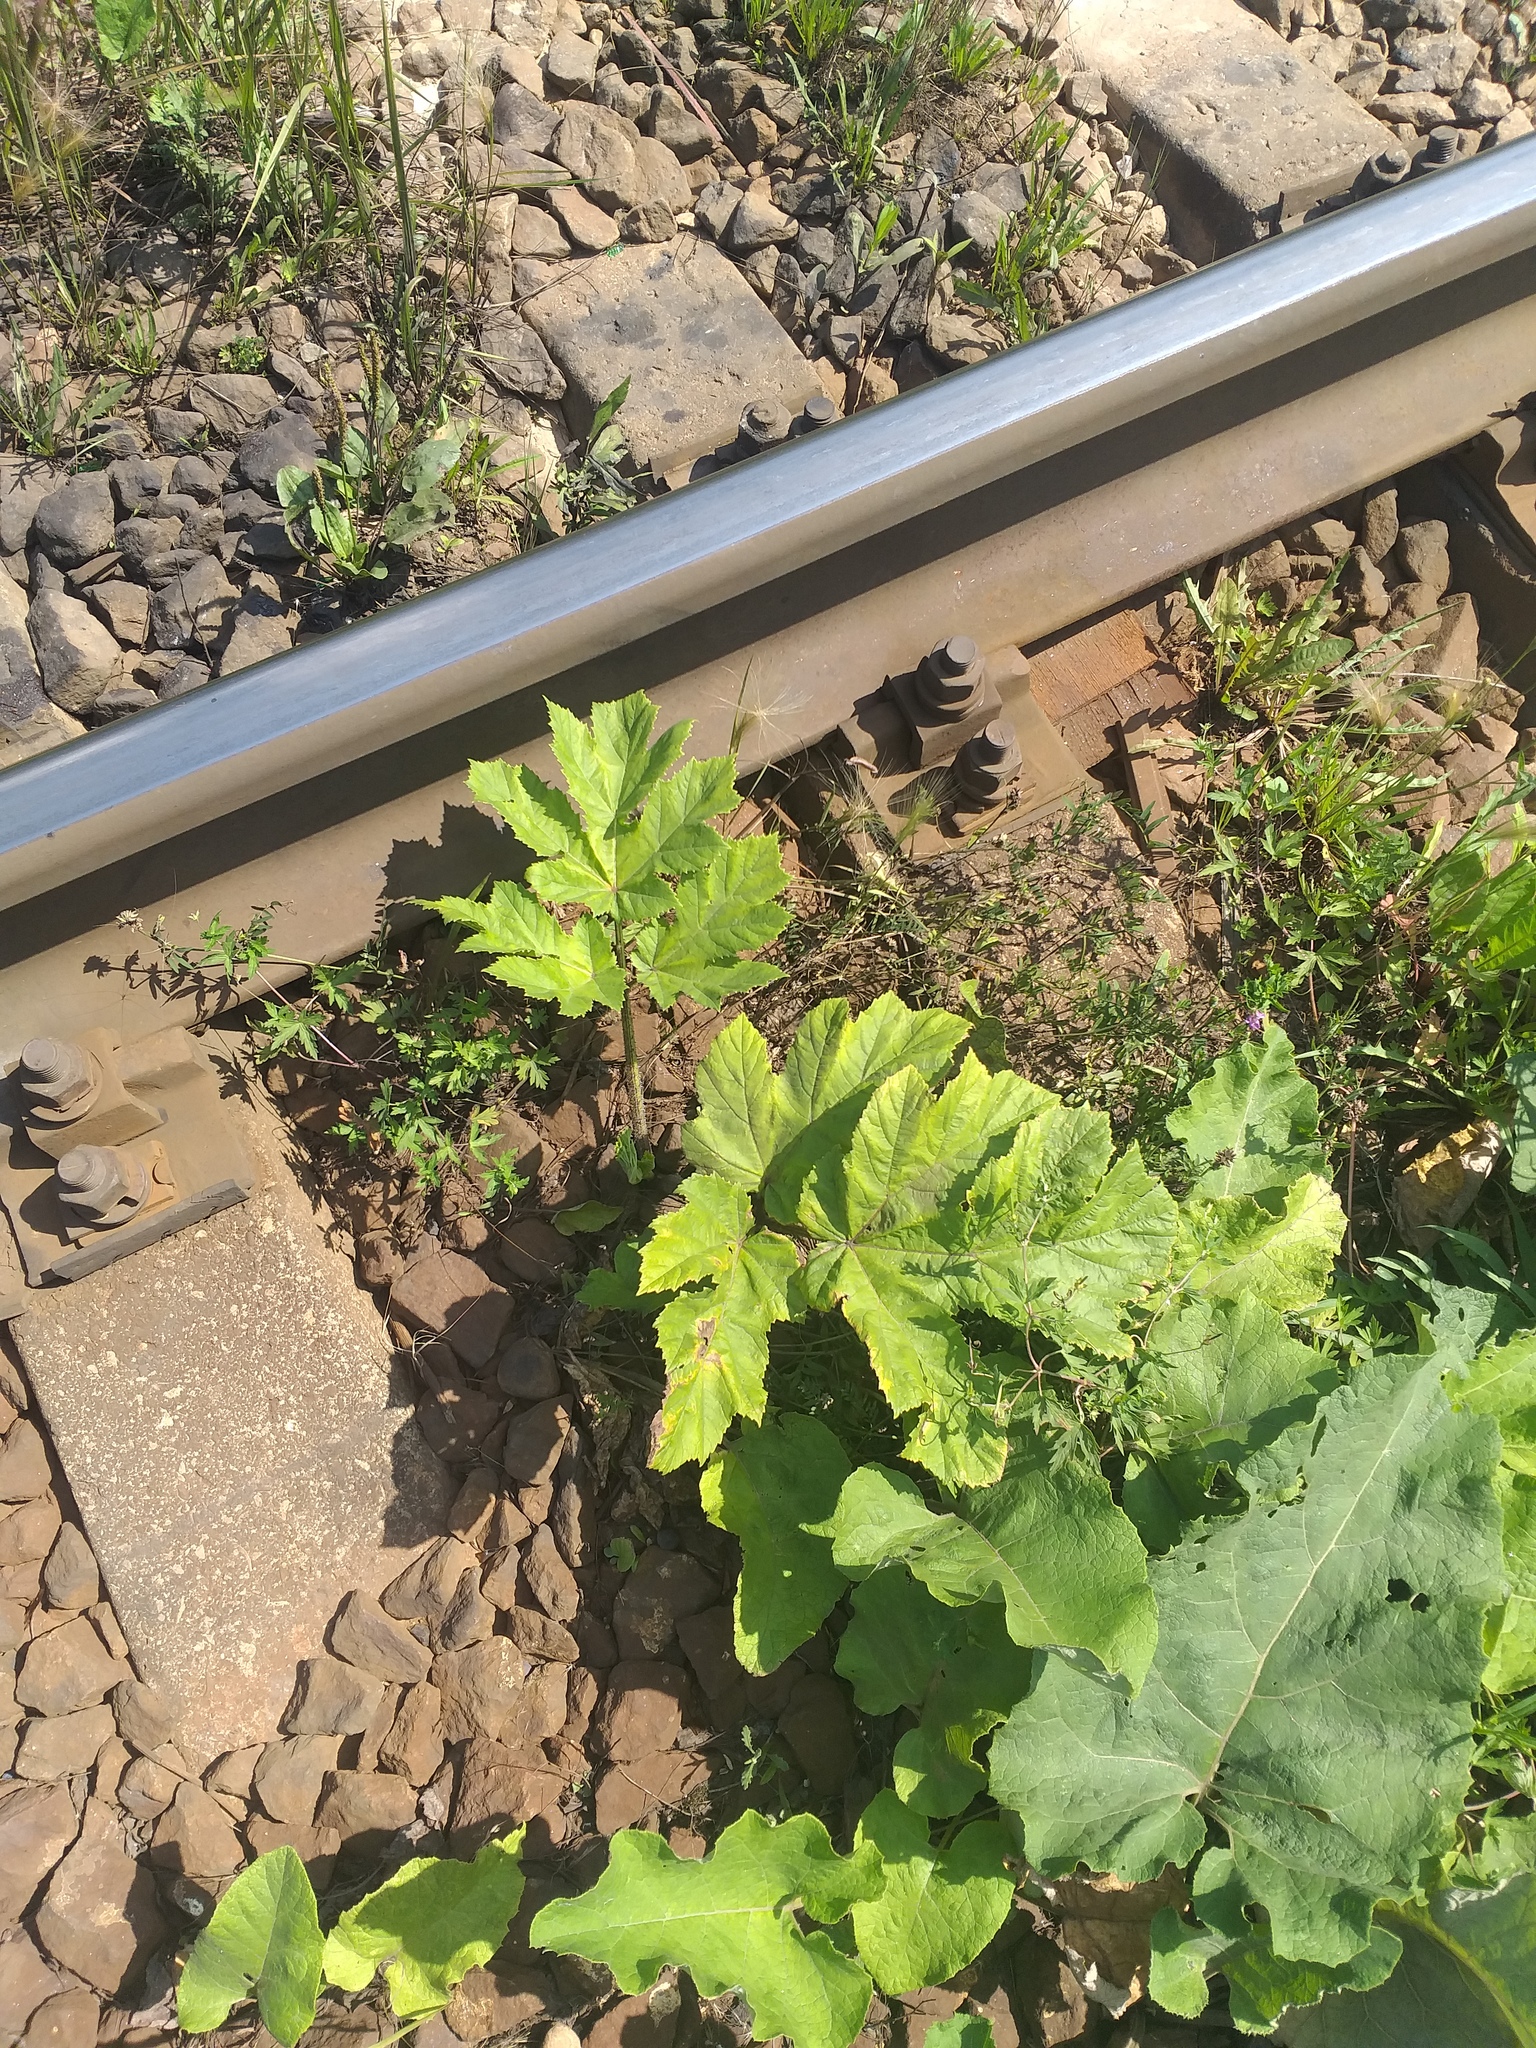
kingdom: Plantae
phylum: Tracheophyta
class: Magnoliopsida
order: Apiales
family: Apiaceae
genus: Heracleum
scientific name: Heracleum sosnowskyi
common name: Sosnowsky's hogweed
